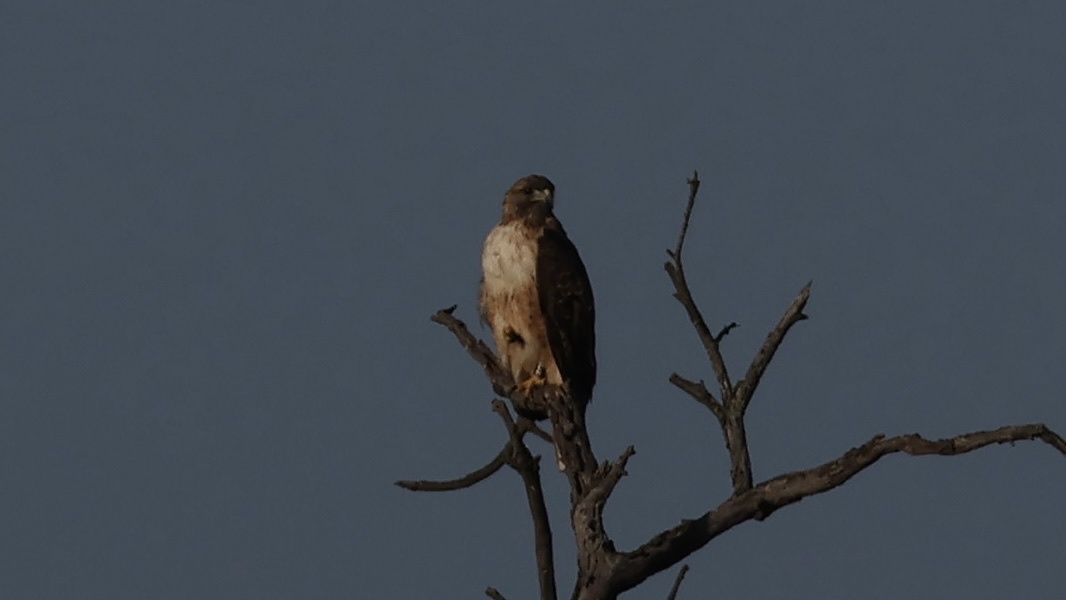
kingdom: Animalia
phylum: Chordata
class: Aves
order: Accipitriformes
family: Accipitridae
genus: Buteo
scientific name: Buteo jamaicensis
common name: Red-tailed hawk
